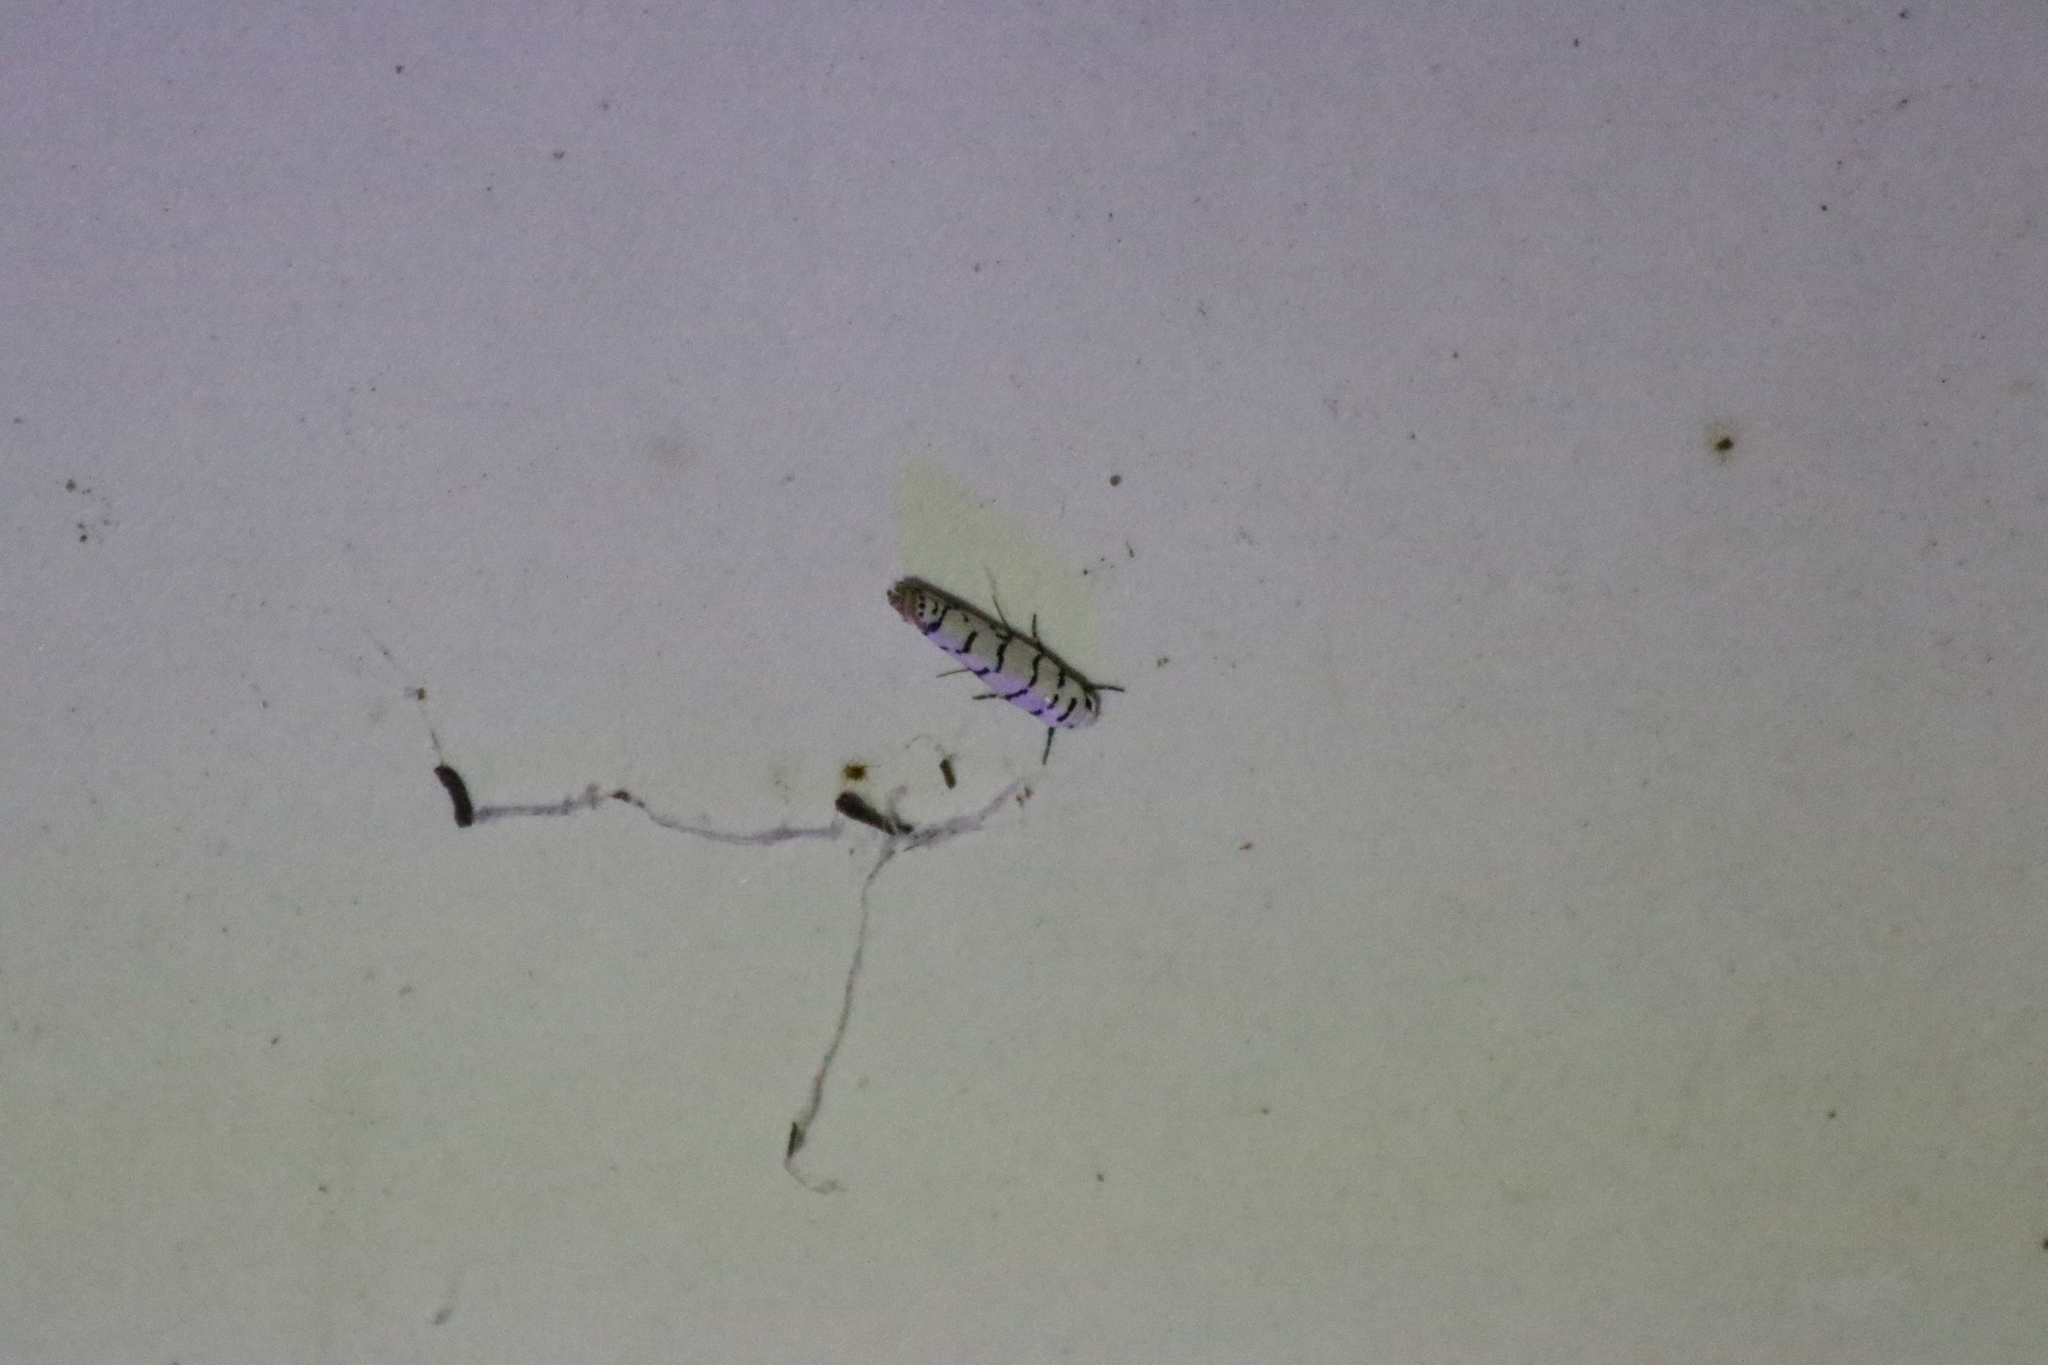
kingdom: Animalia
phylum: Arthropoda
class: Insecta
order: Lepidoptera
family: Ethmiidae
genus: Ethmia
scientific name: Ethmia delliella
